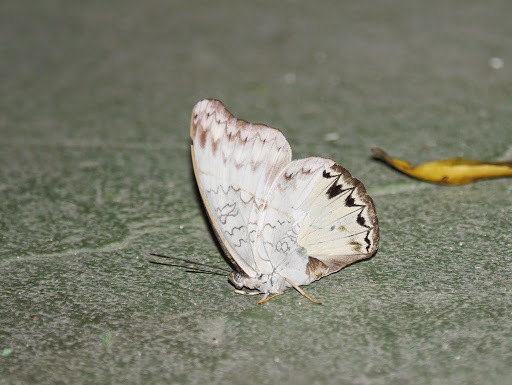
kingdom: Animalia
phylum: Arthropoda
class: Insecta
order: Lepidoptera
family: Nymphalidae
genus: Cymothoe
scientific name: Cymothoe caenis
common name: Common glider
